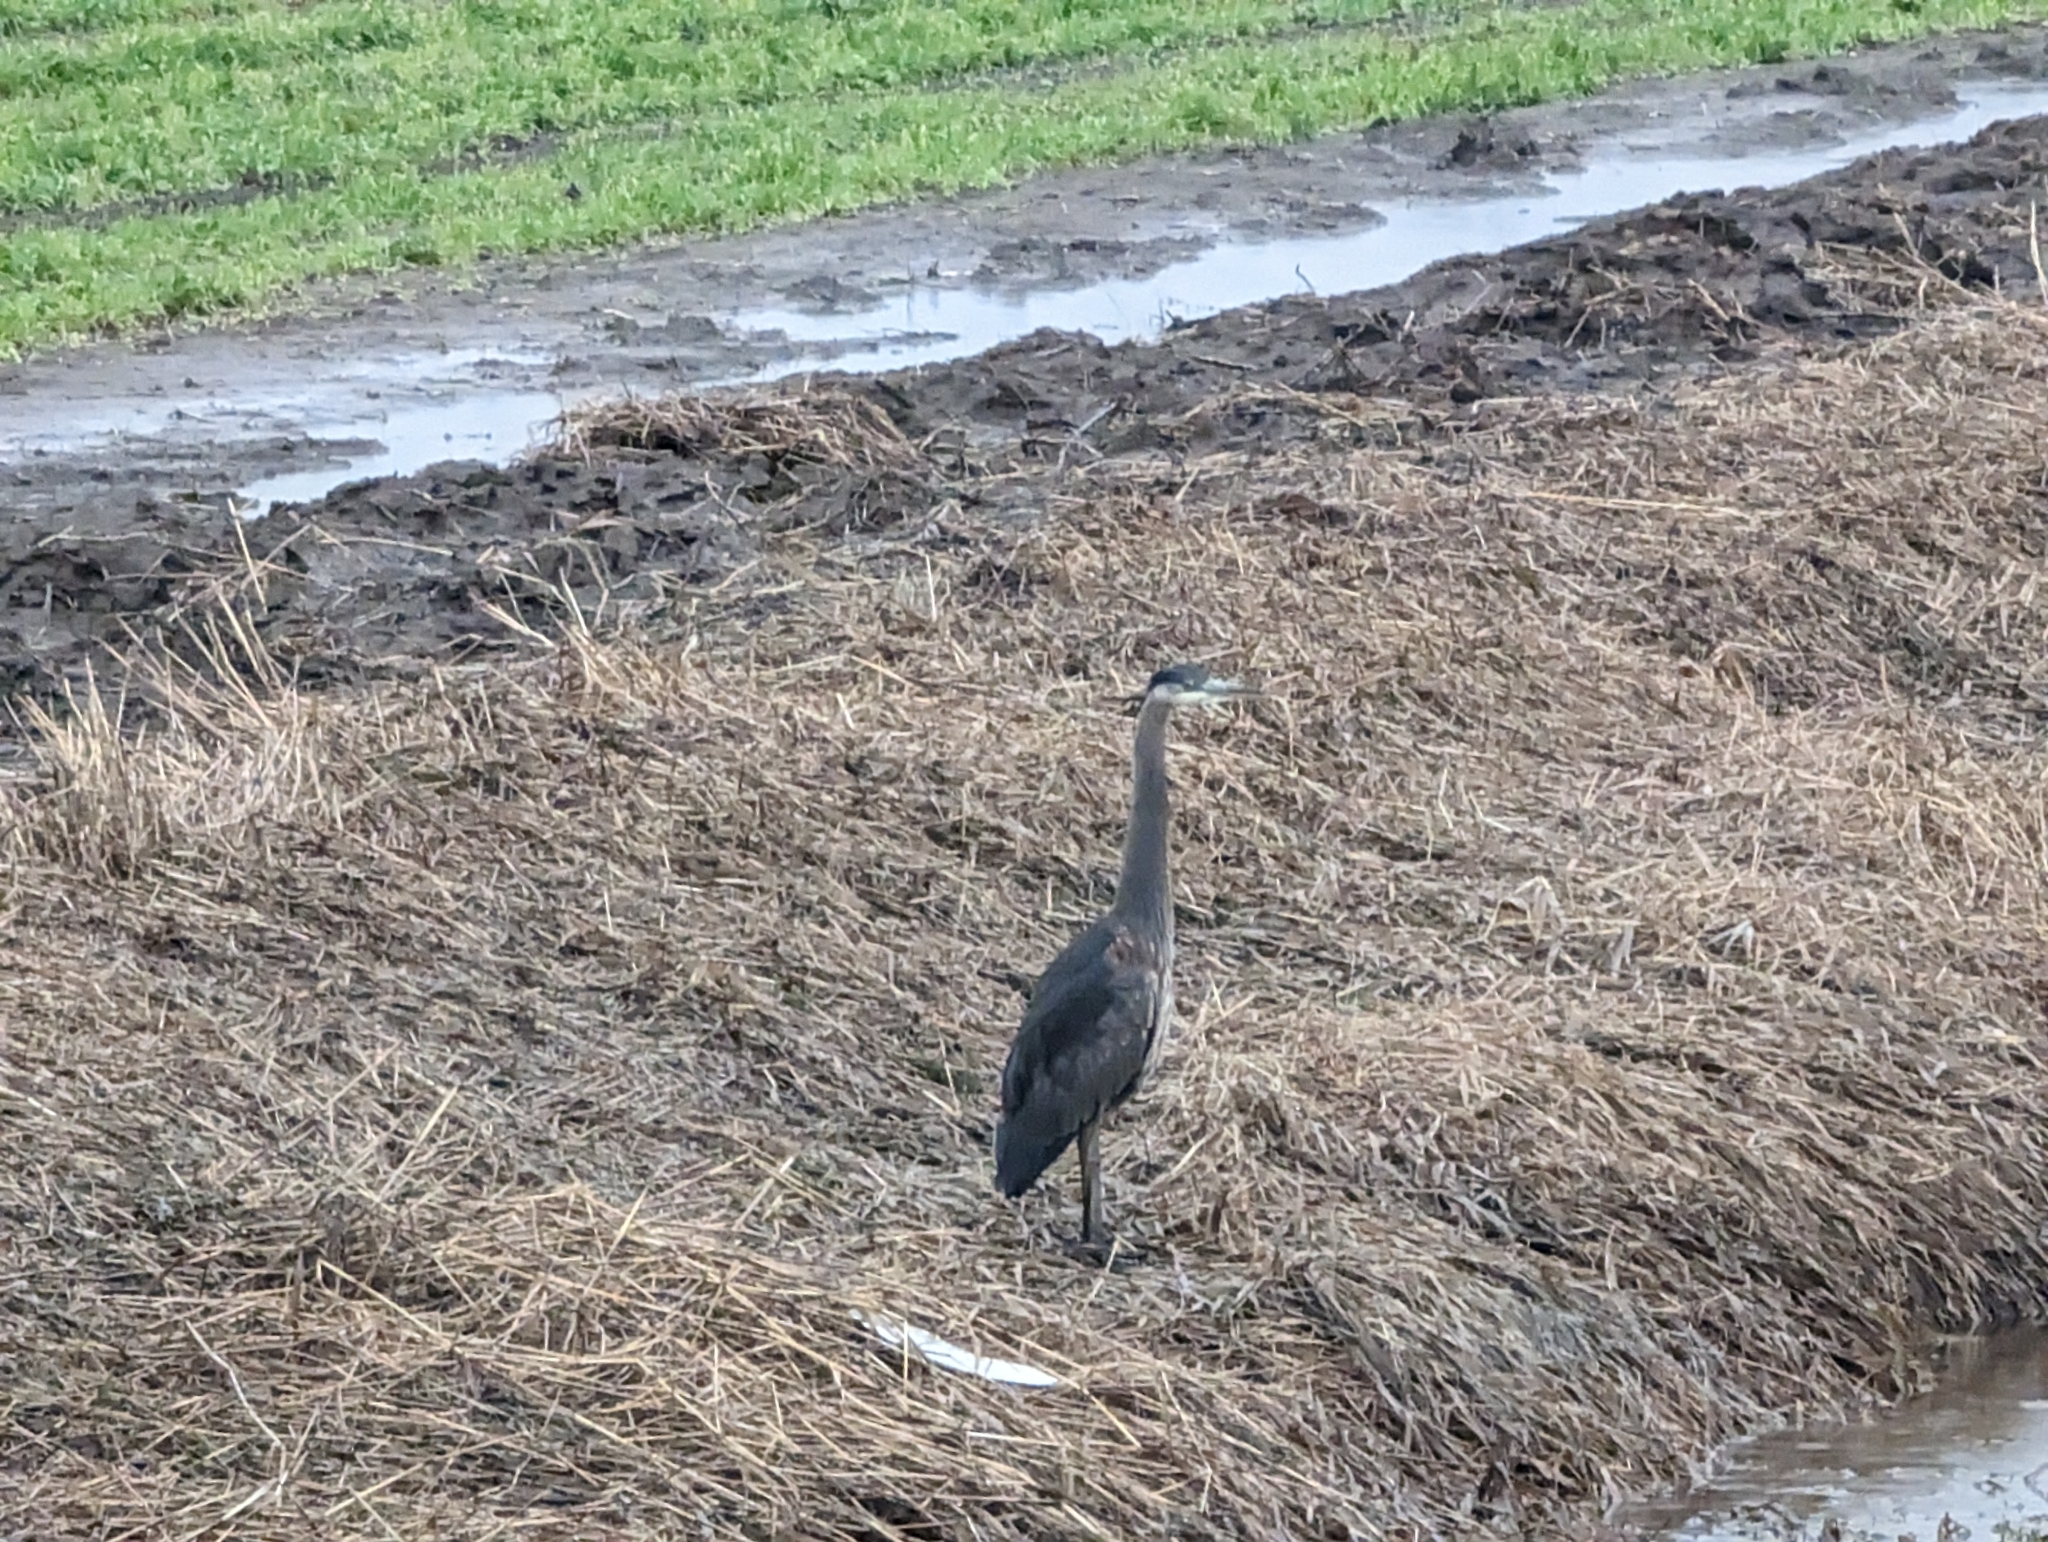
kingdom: Animalia
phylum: Chordata
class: Aves
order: Pelecaniformes
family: Ardeidae
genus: Ardea
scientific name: Ardea herodias
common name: Great blue heron
